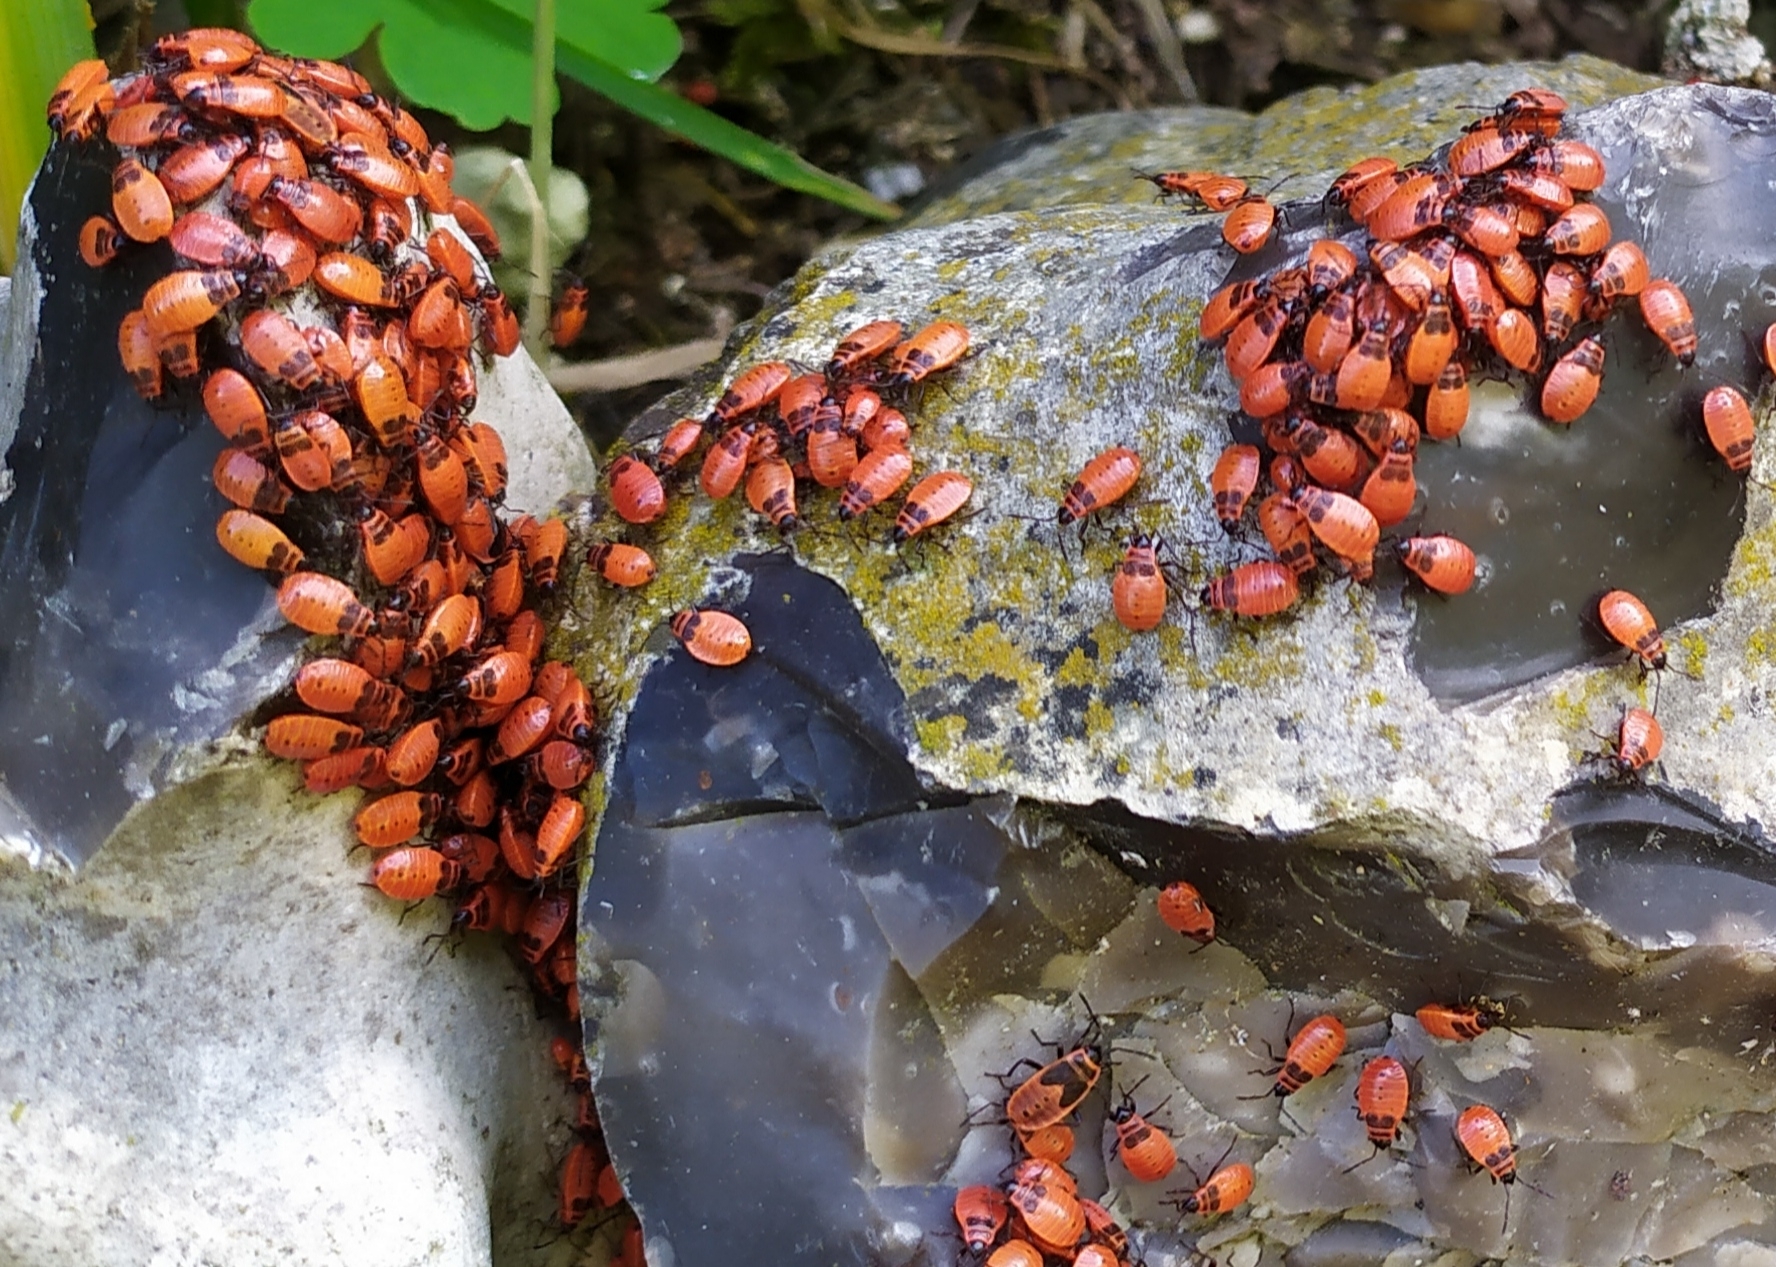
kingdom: Animalia
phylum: Arthropoda
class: Insecta
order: Hemiptera
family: Pyrrhocoridae
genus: Pyrrhocoris
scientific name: Pyrrhocoris apterus
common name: Firebug
